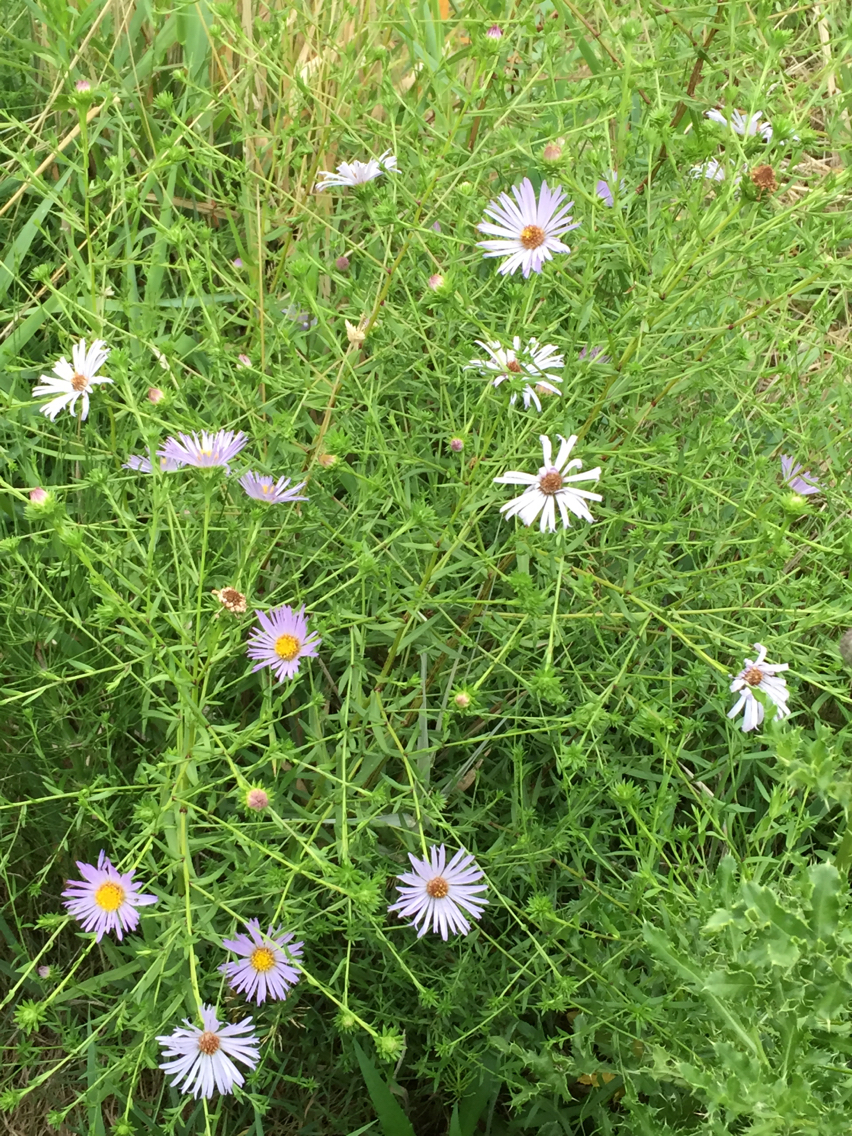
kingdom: Plantae
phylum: Tracheophyta
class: Magnoliopsida
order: Asterales
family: Asteraceae
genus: Symphyotrichum
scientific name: Symphyotrichum subspicatum
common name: Douglas' aster
